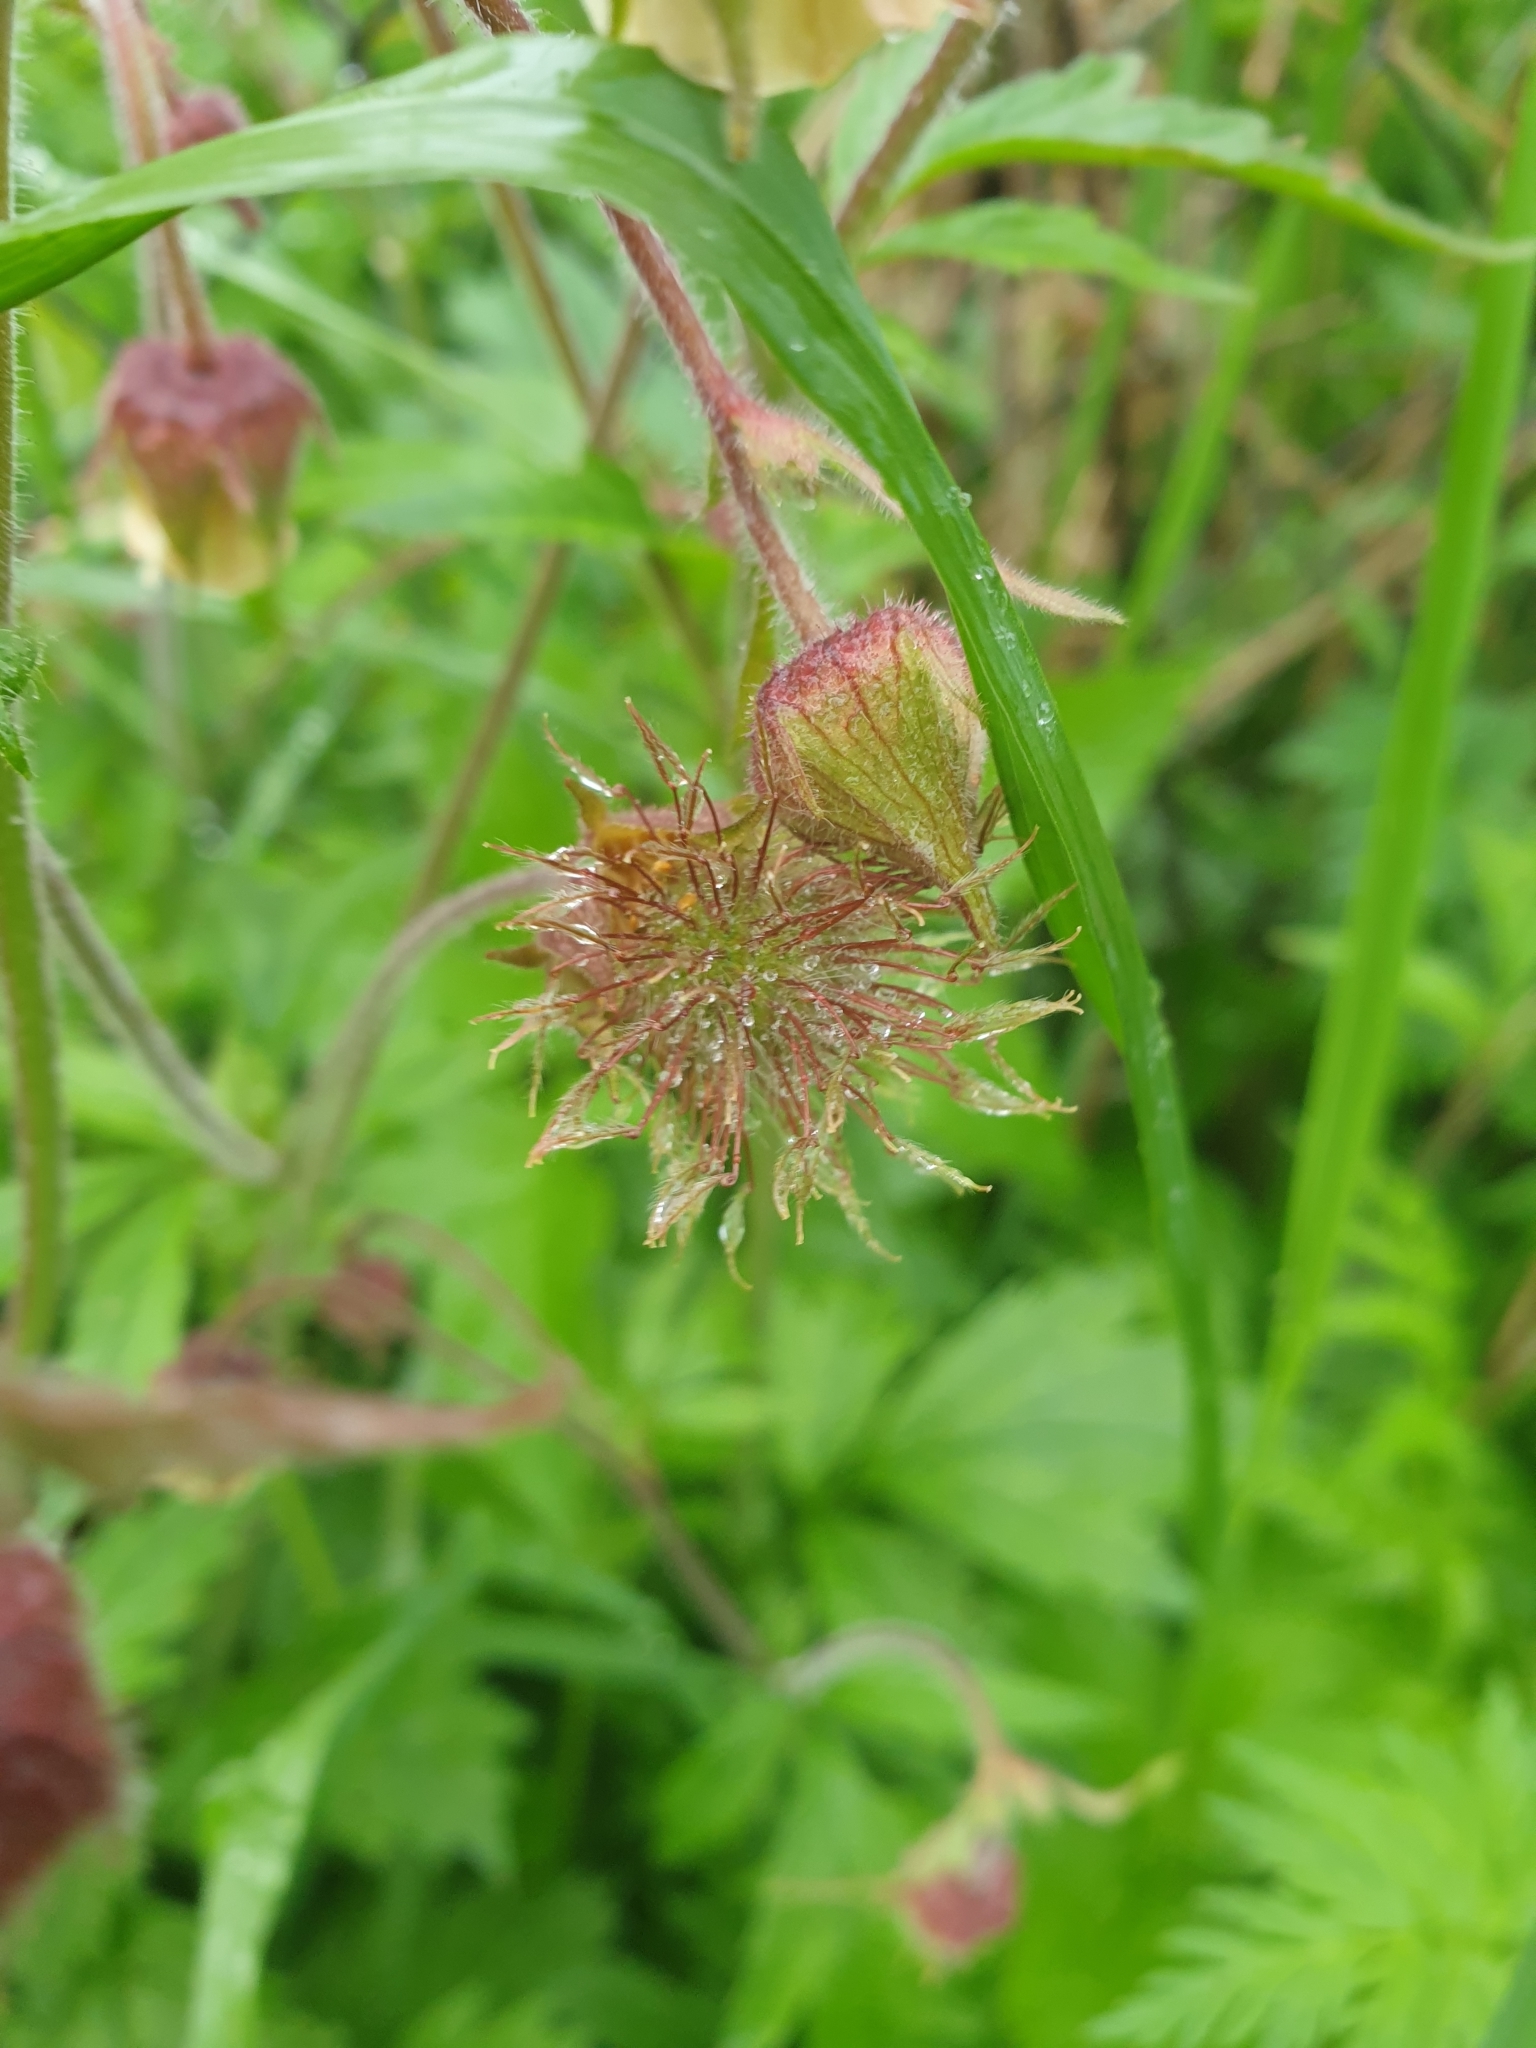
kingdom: Plantae
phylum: Tracheophyta
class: Magnoliopsida
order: Rosales
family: Rosaceae
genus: Geum
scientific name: Geum rivale
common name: Water avens
